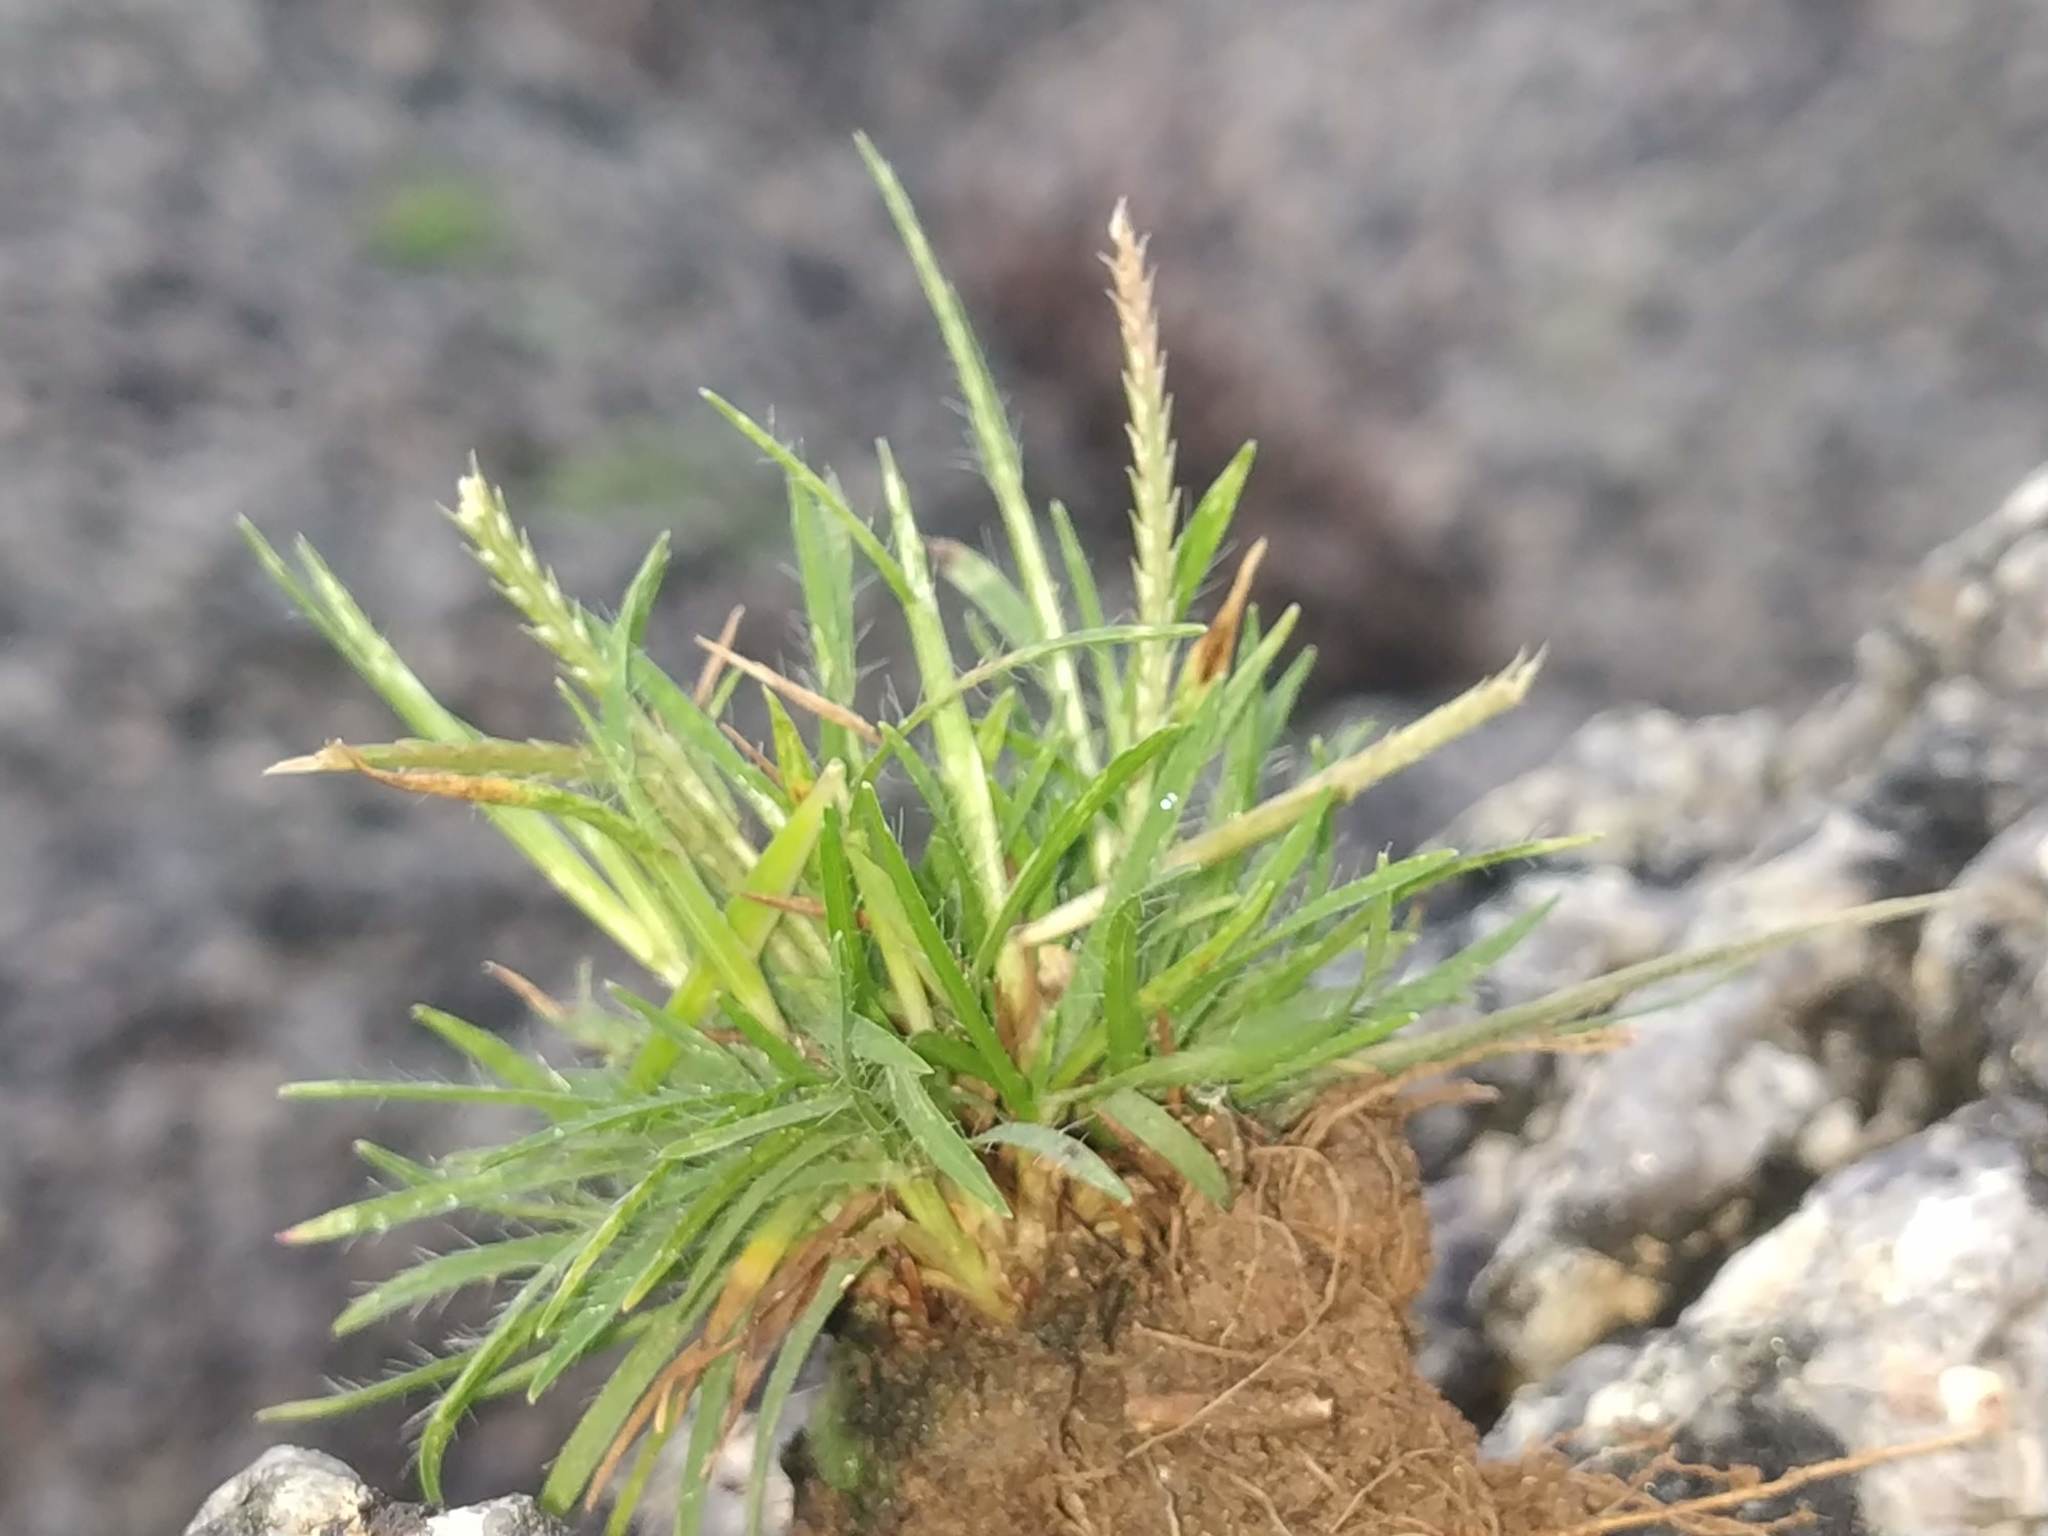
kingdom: Plantae
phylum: Tracheophyta
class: Liliopsida
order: Poales
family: Poaceae
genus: Oropetium
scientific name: Oropetium thomaeum
